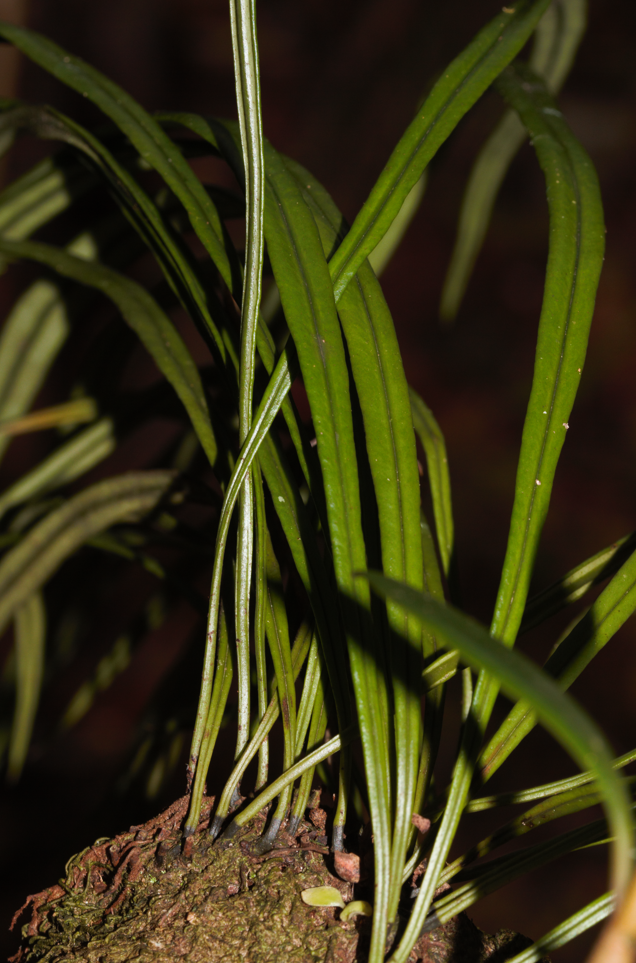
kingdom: Plantae
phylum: Tracheophyta
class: Polypodiopsida
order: Polypodiales
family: Dryopteridaceae
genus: Elaphoglossum
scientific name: Elaphoglossum glabellum
